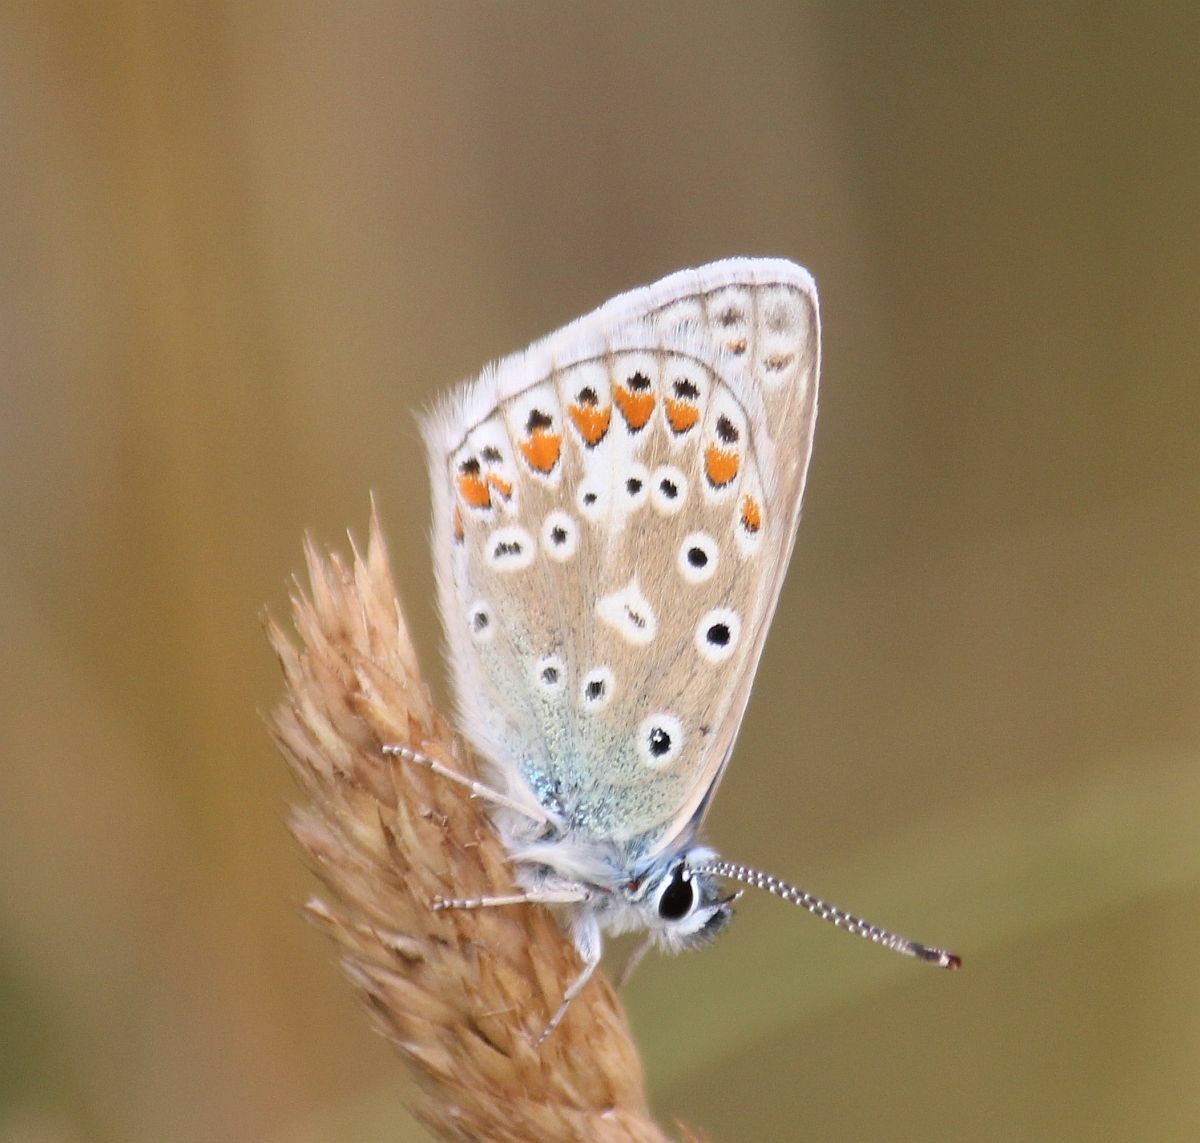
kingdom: Animalia
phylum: Arthropoda
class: Insecta
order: Lepidoptera
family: Lycaenidae
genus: Polyommatus
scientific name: Polyommatus icarus
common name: Common blue
